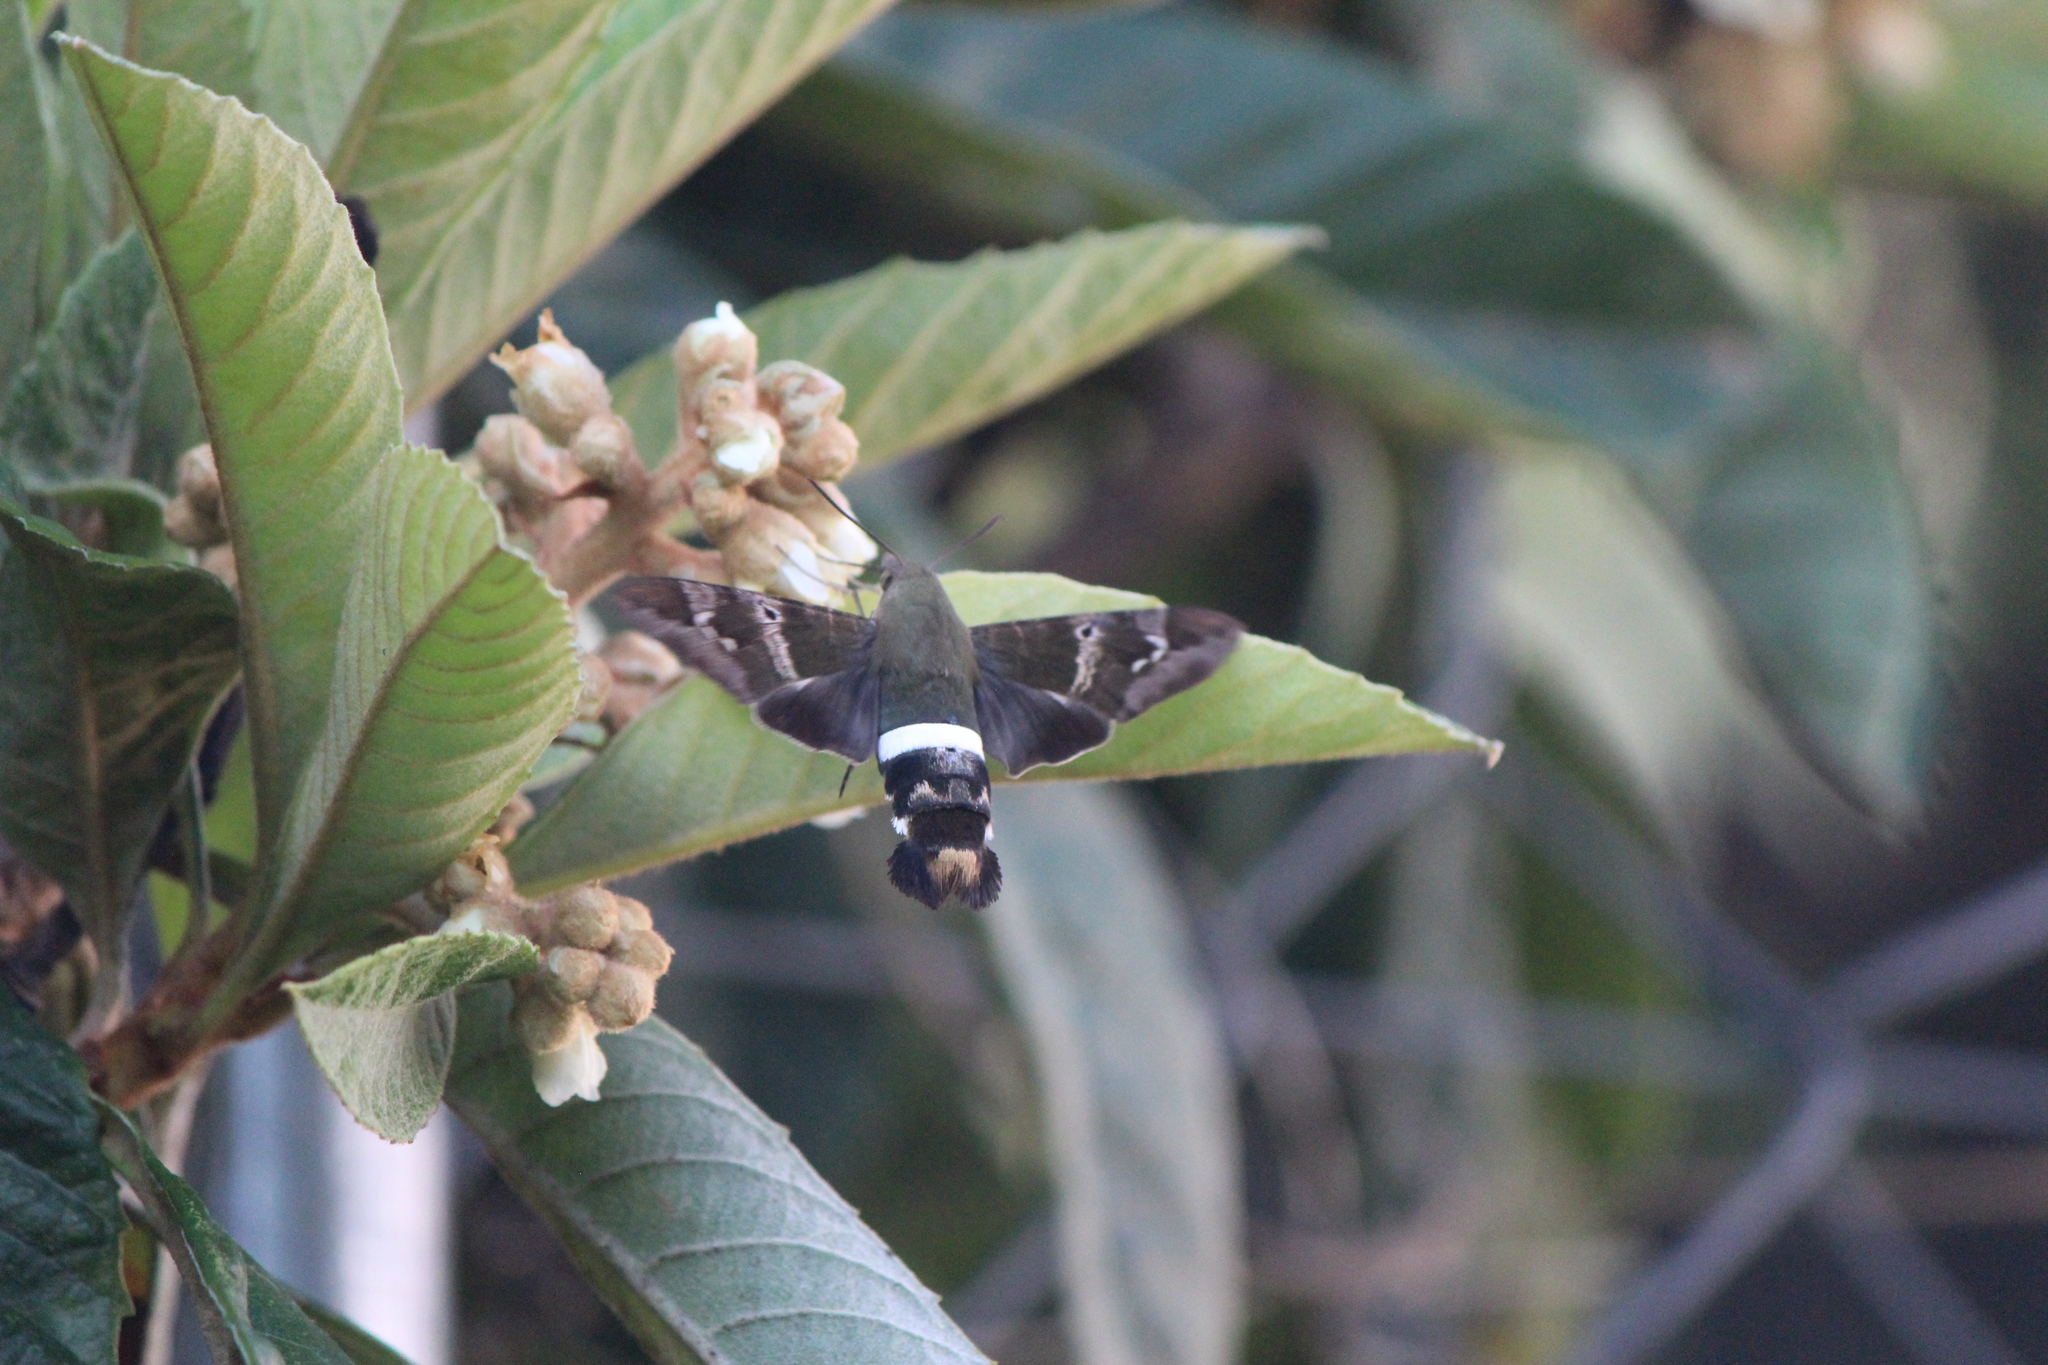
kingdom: Animalia
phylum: Arthropoda
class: Insecta
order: Lepidoptera
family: Sphingidae
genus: Aellopos
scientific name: Aellopos clavipes
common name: Clavipes sphinx
